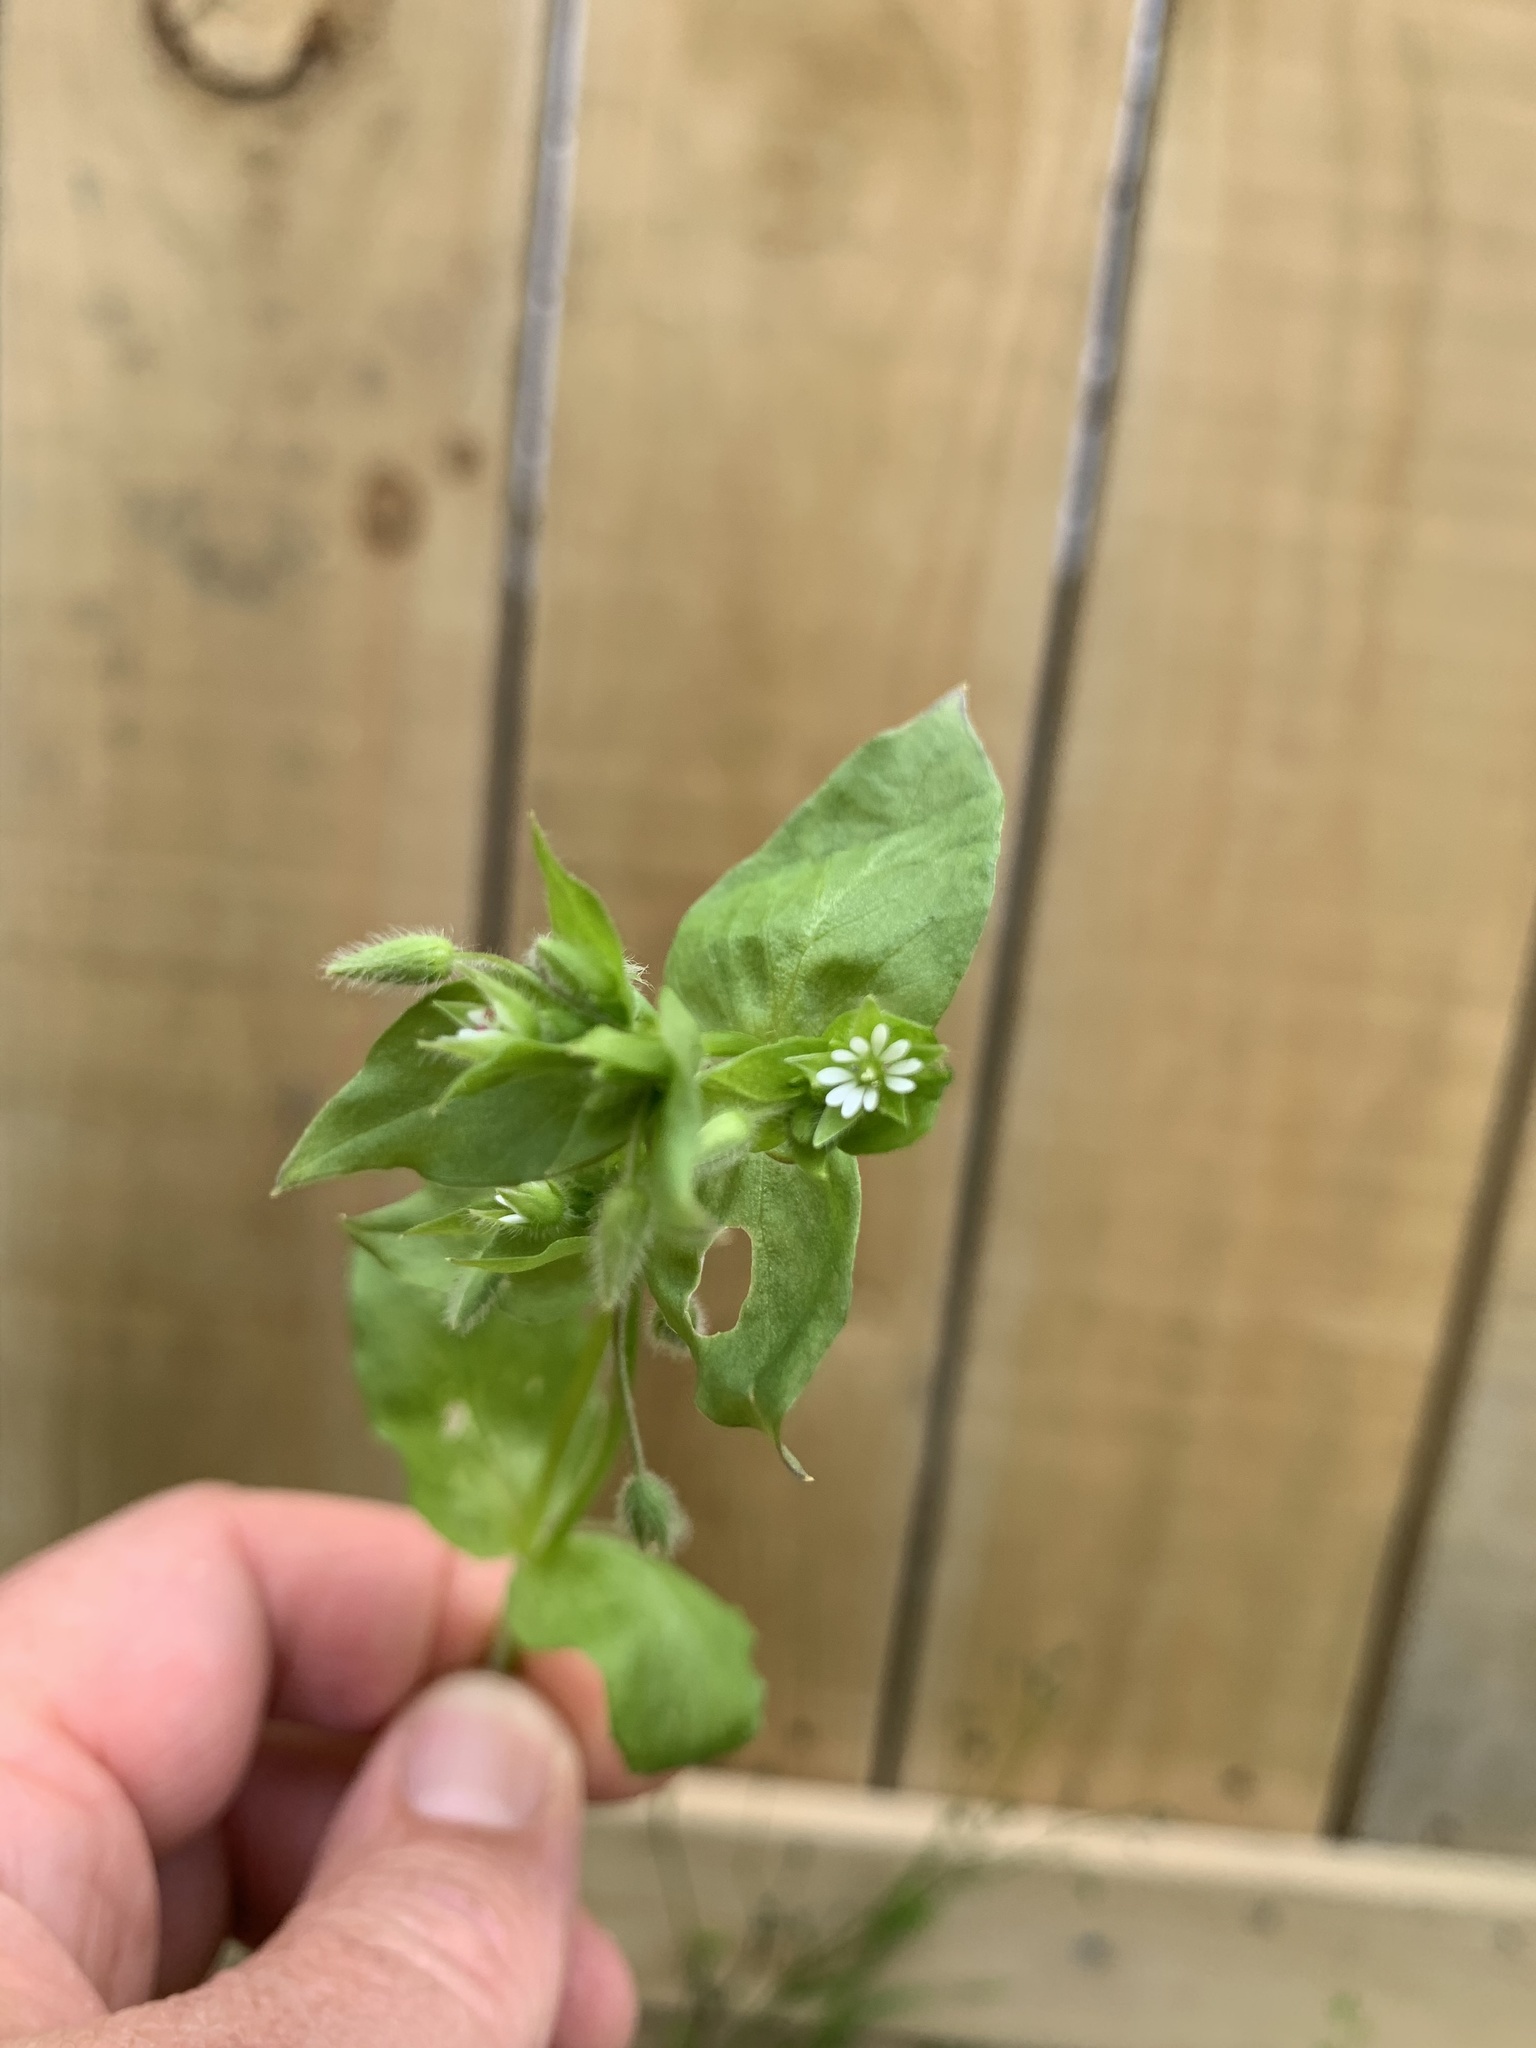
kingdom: Plantae
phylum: Tracheophyta
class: Magnoliopsida
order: Caryophyllales
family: Caryophyllaceae
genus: Stellaria
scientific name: Stellaria media
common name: Common chickweed
